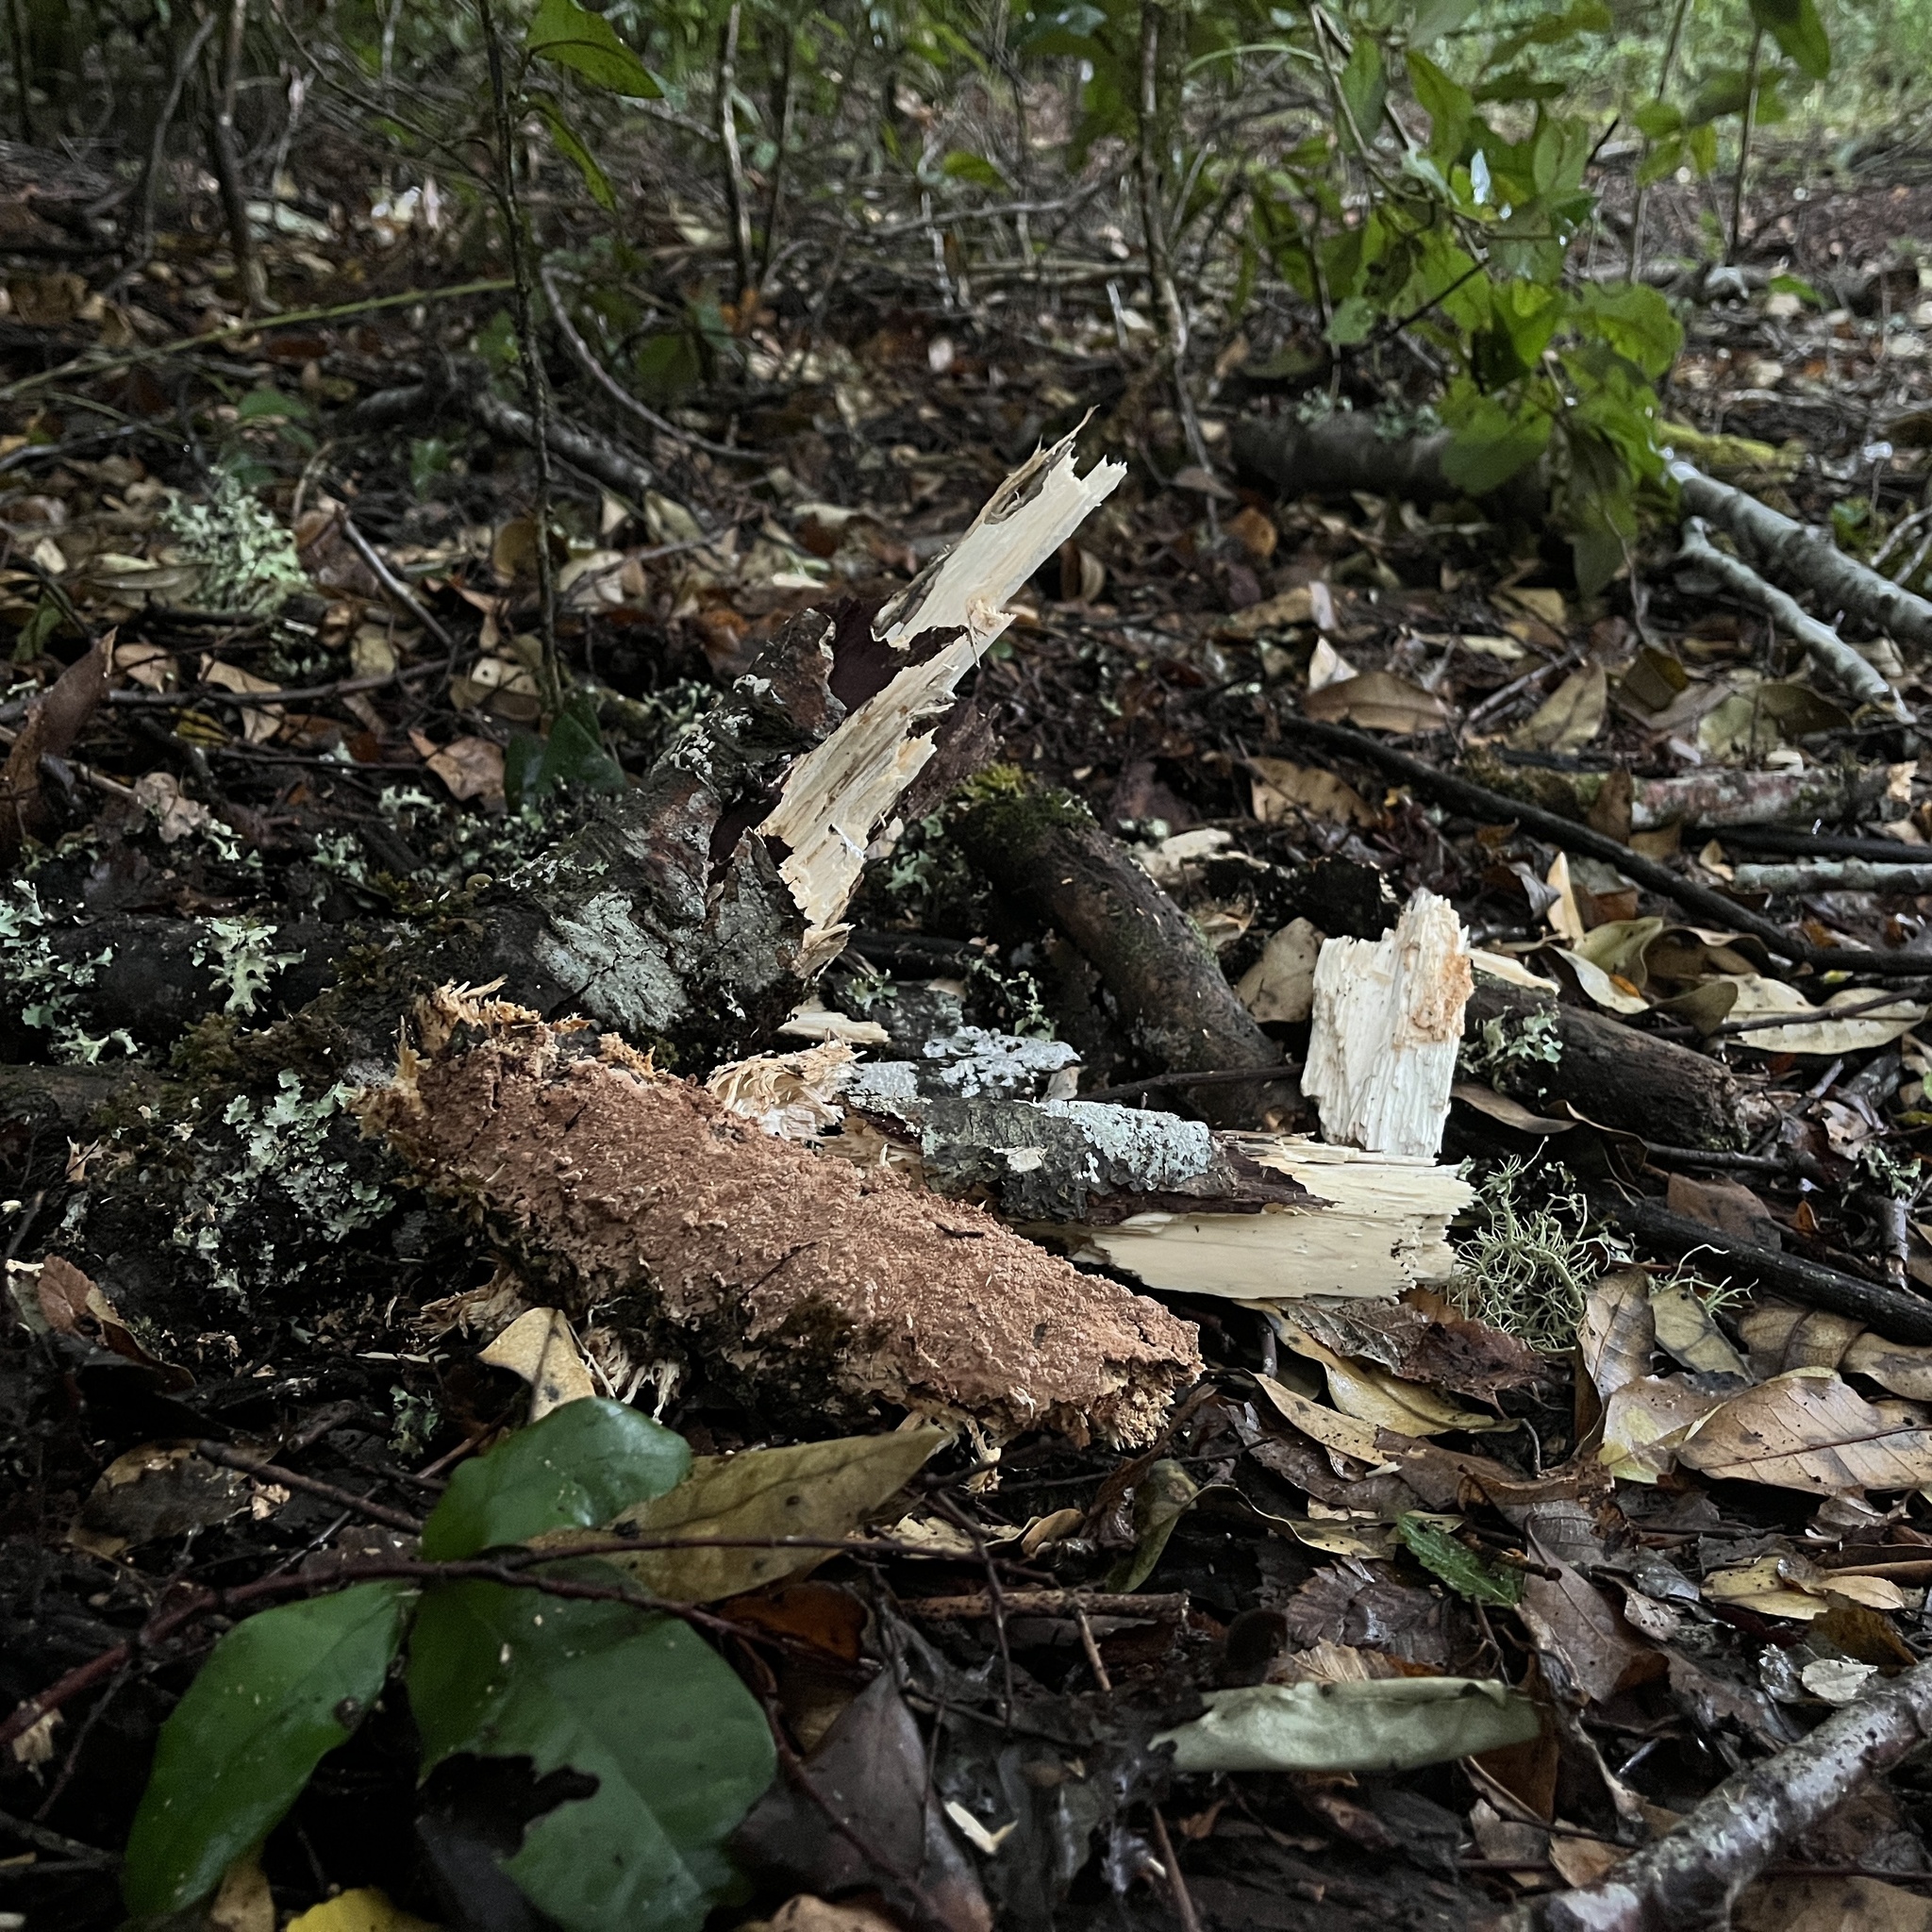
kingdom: Fungi
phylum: Basidiomycota
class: Agaricomycetes
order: Hymenochaetales
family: Schizoporaceae
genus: Xylodon
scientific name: Xylodon magallanesii
